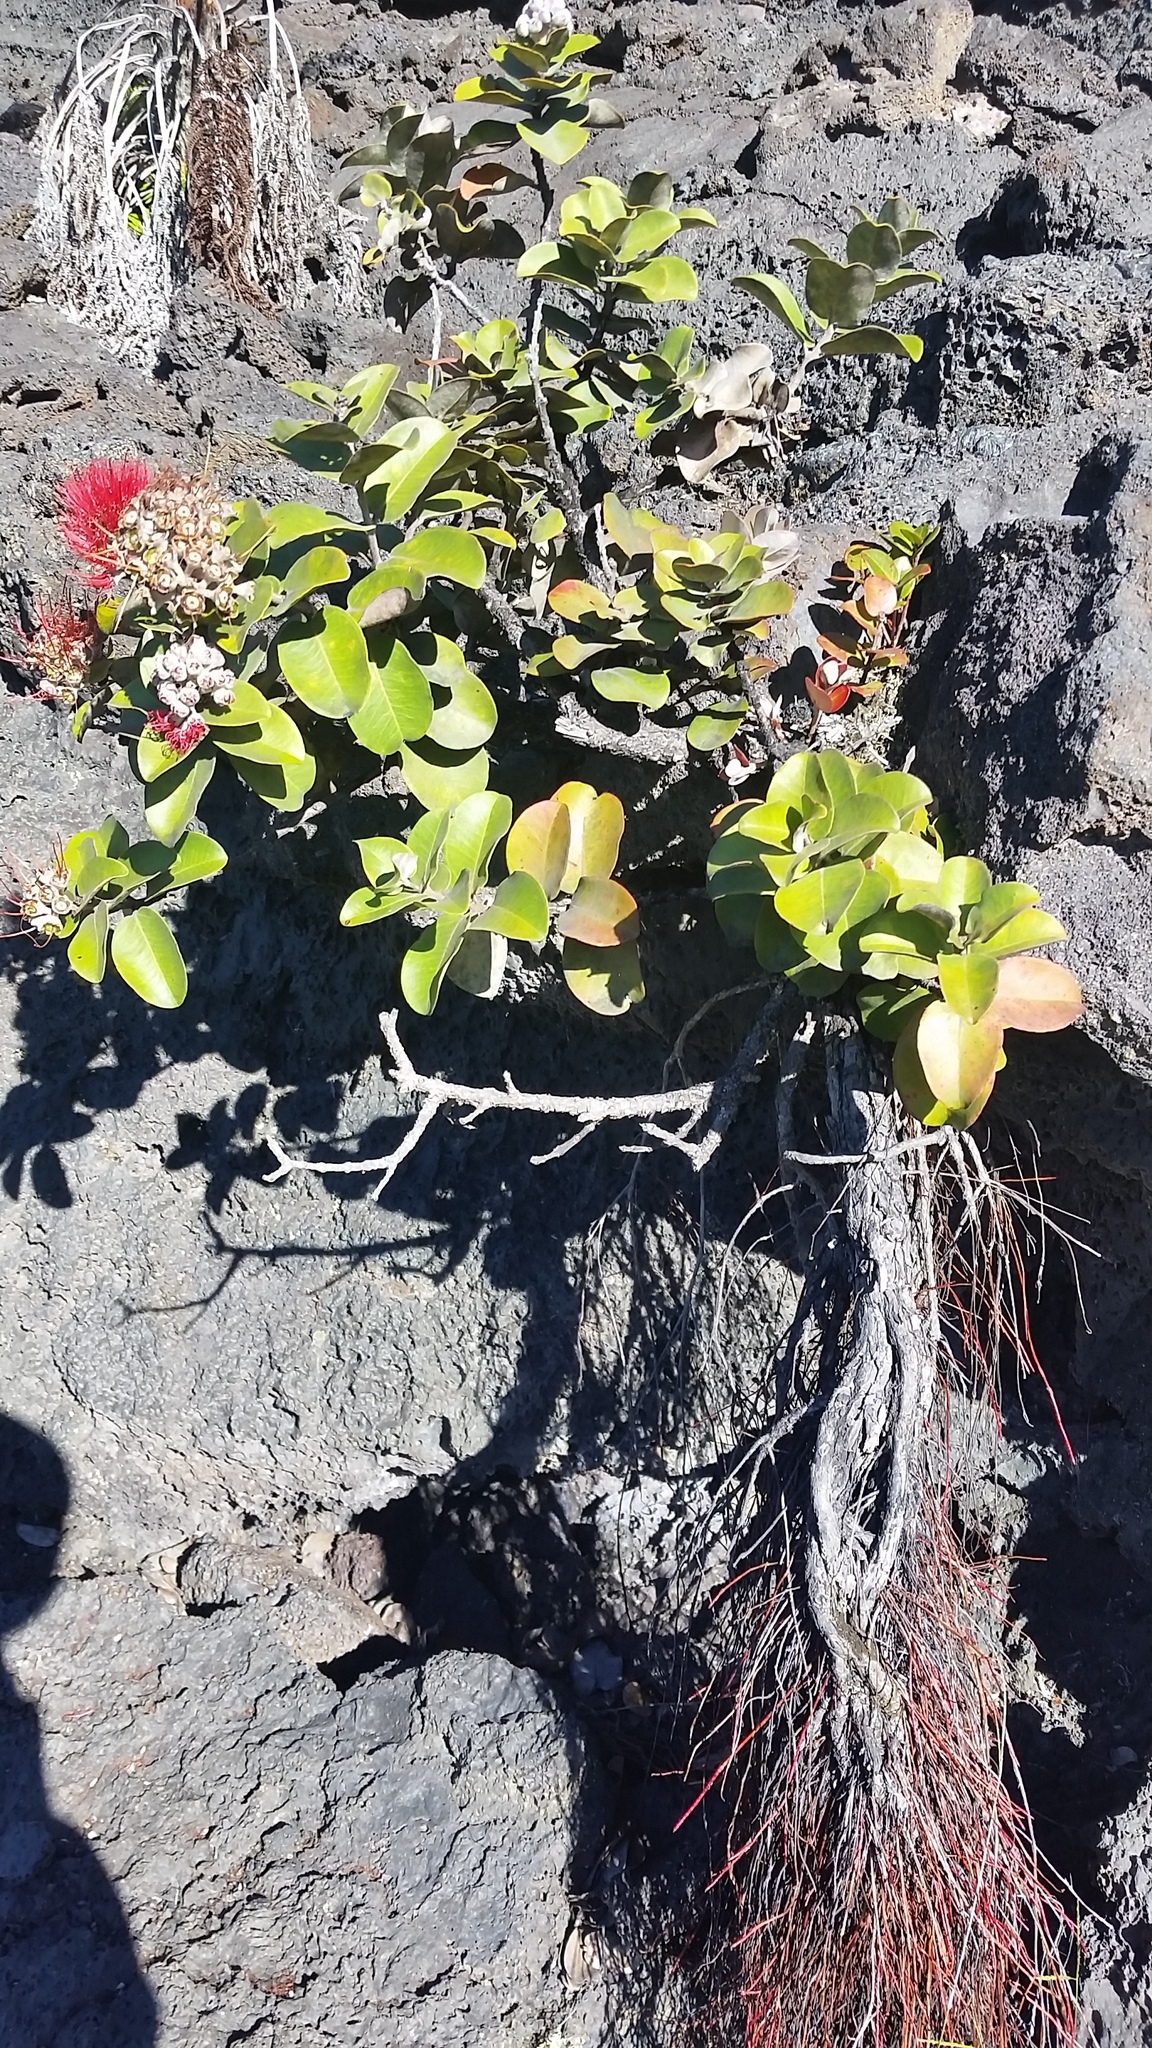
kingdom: Plantae
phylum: Tracheophyta
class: Magnoliopsida
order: Myrtales
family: Myrtaceae
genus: Metrosideros
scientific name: Metrosideros polymorpha
